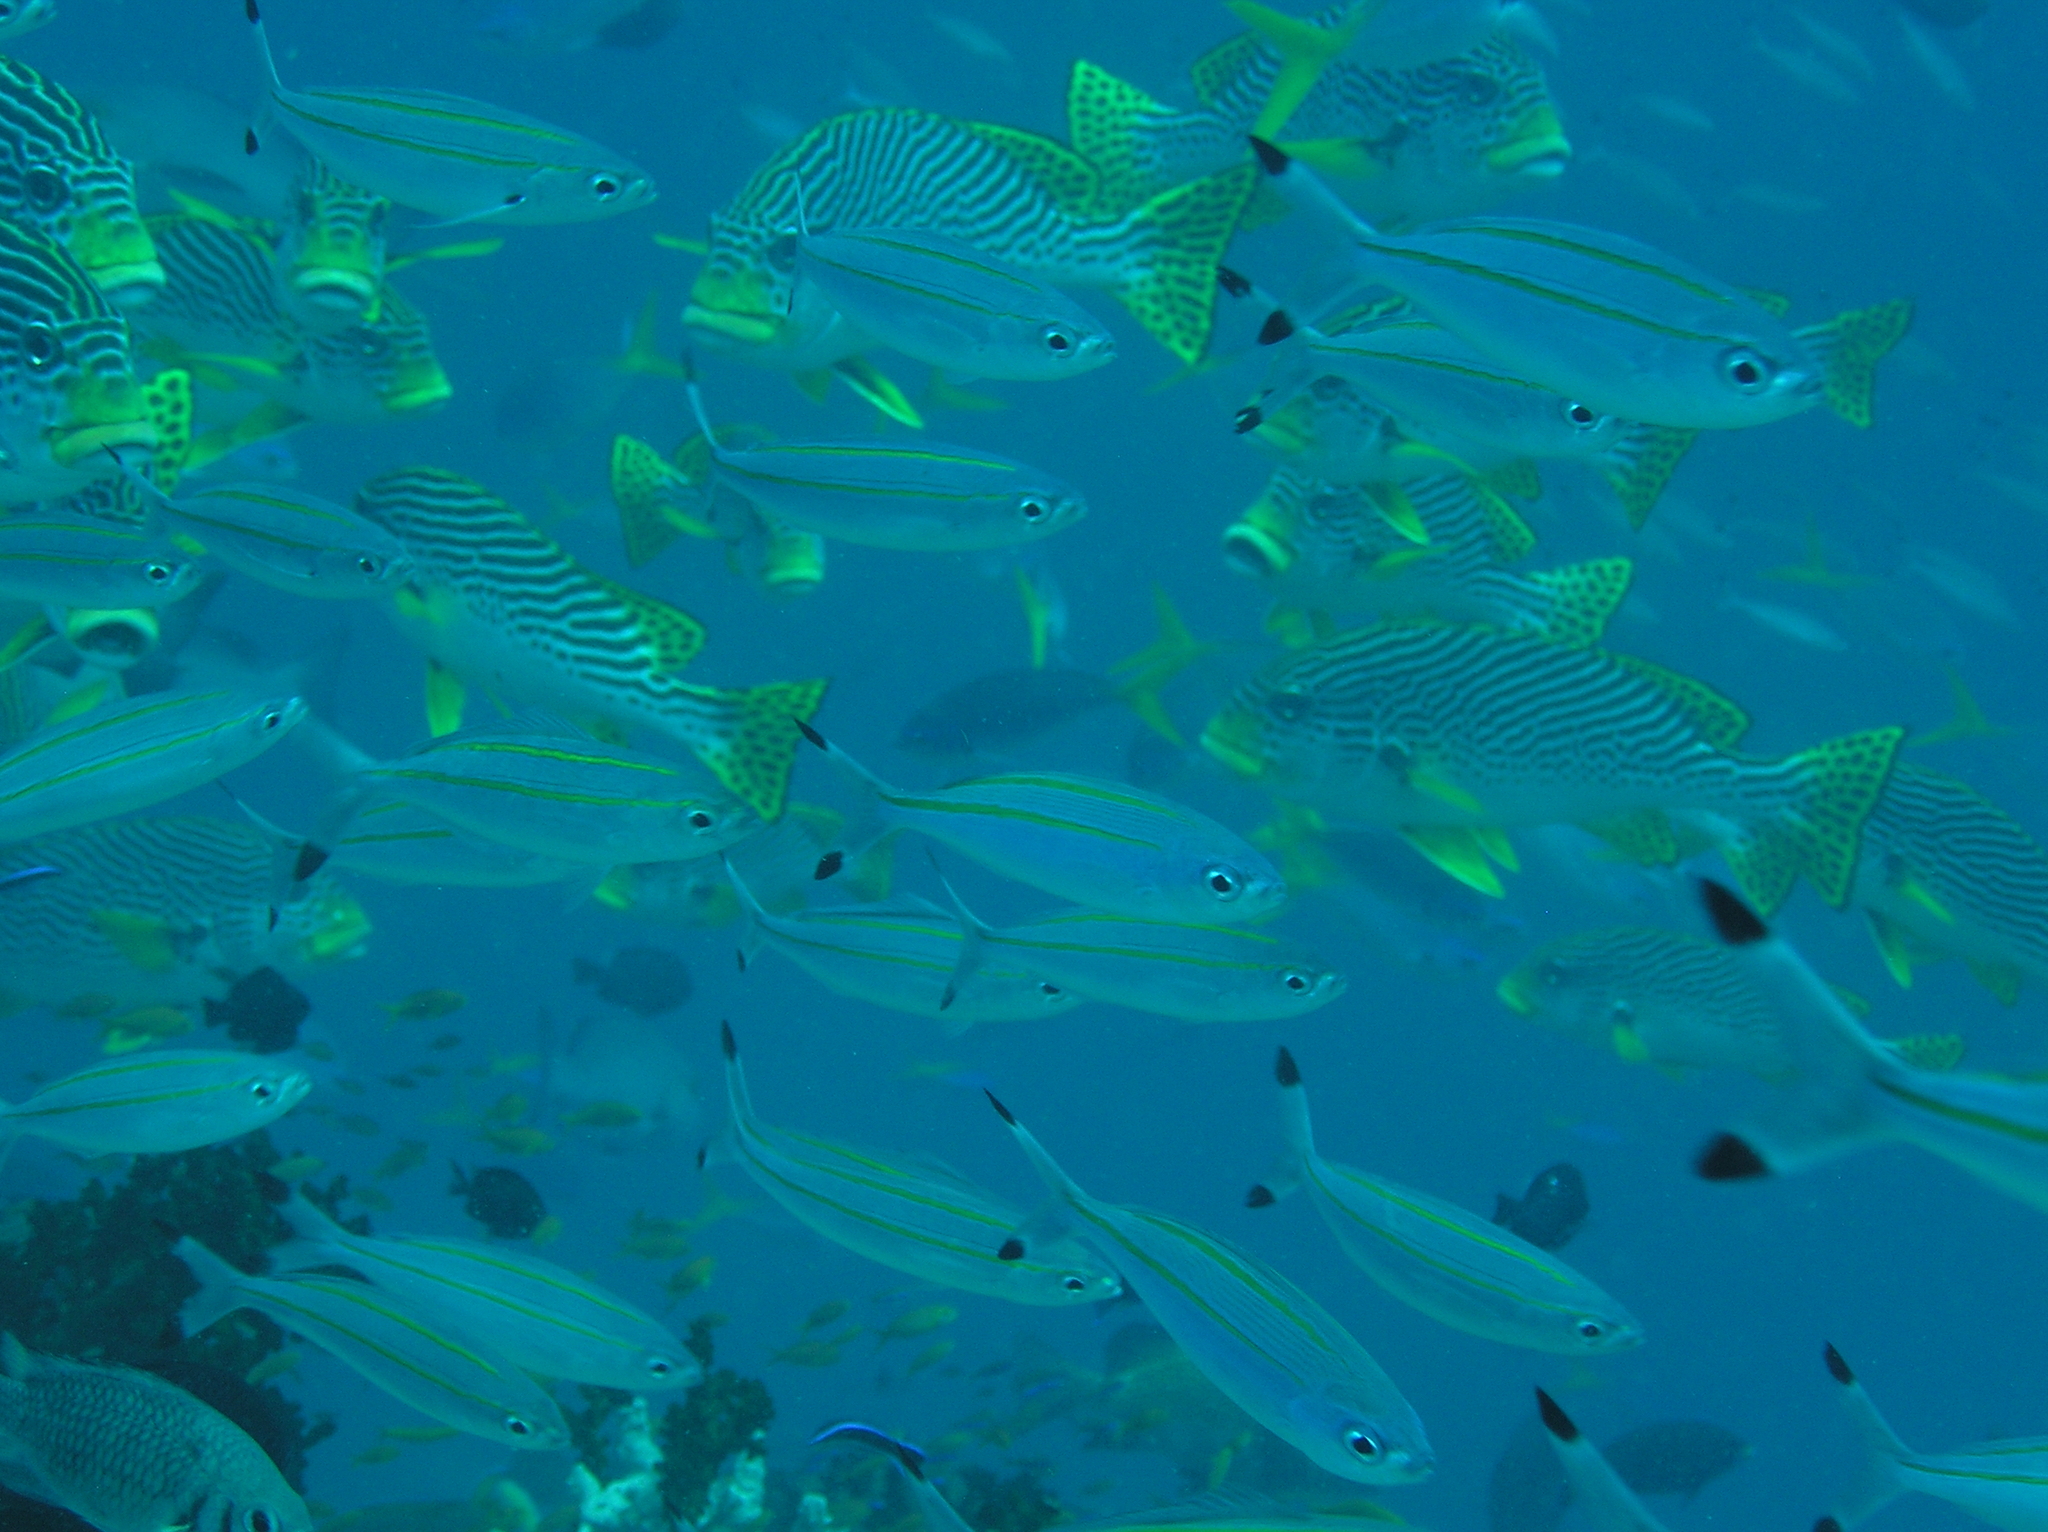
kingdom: Animalia
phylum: Chordata
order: Perciformes
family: Caesionidae
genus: Pterocaesio
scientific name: Pterocaesio digramma
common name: Double-lined fusilier
